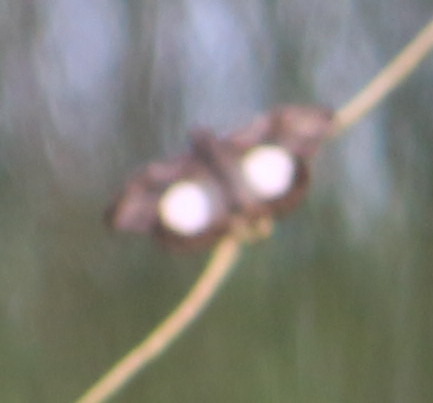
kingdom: Animalia
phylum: Arthropoda
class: Insecta
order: Lepidoptera
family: Hesperiidae
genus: Theagenes
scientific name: Theagenes
